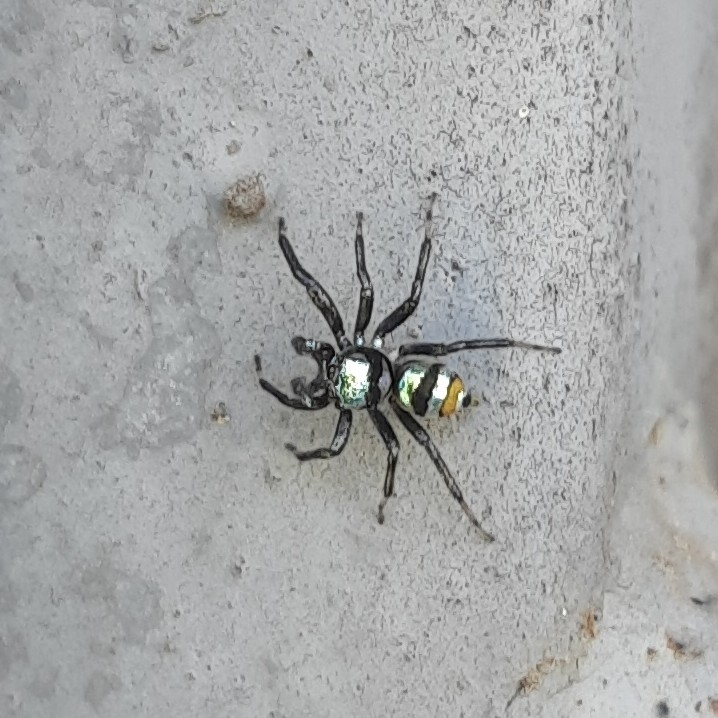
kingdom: Animalia
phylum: Arthropoda
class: Arachnida
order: Araneae
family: Salticidae
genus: Phintella
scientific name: Phintella vittata
